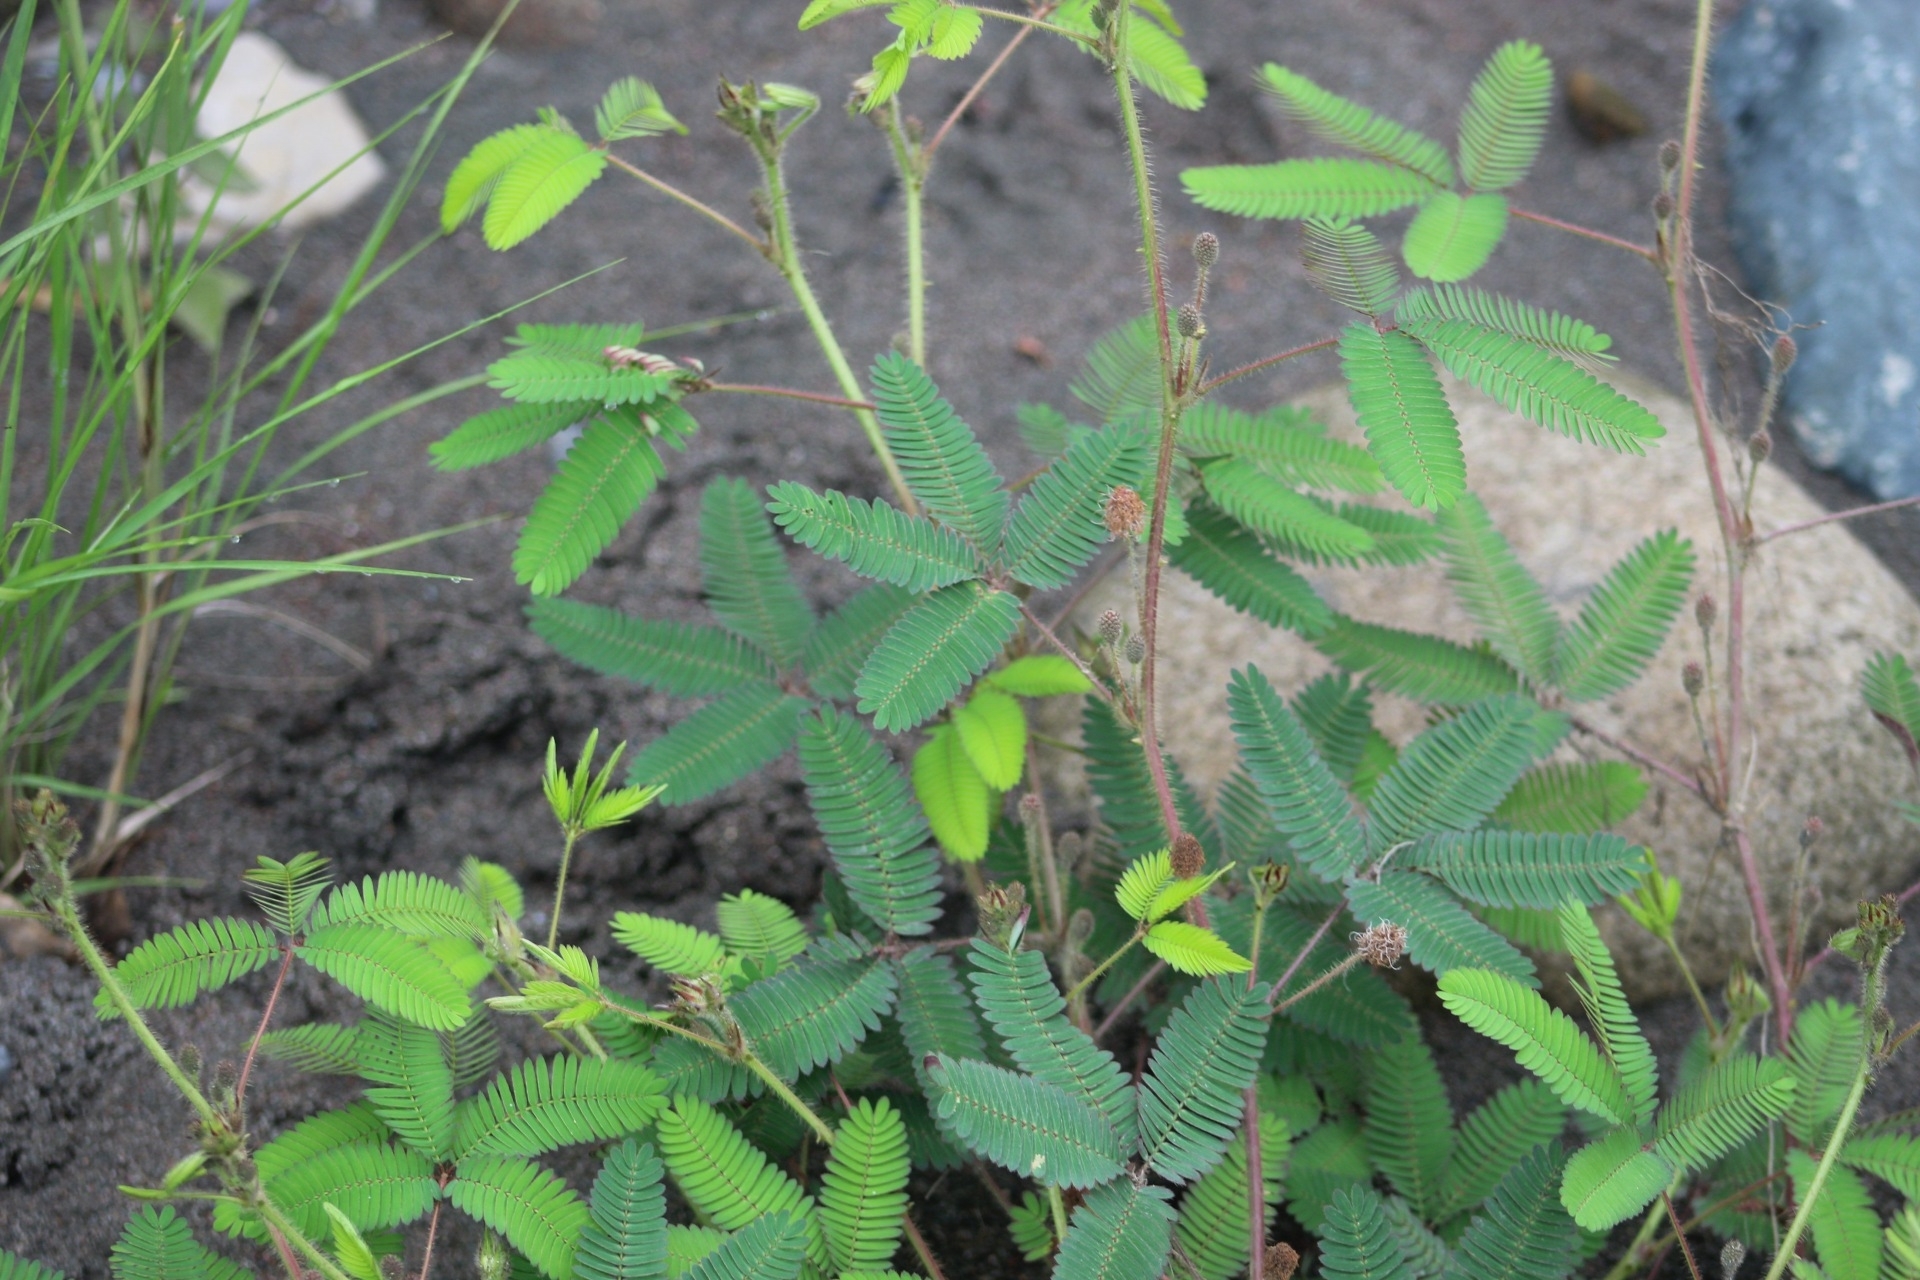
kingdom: Plantae
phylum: Tracheophyta
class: Magnoliopsida
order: Fabales
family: Fabaceae
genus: Mimosa
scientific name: Mimosa pudica
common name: Sensitive plant
